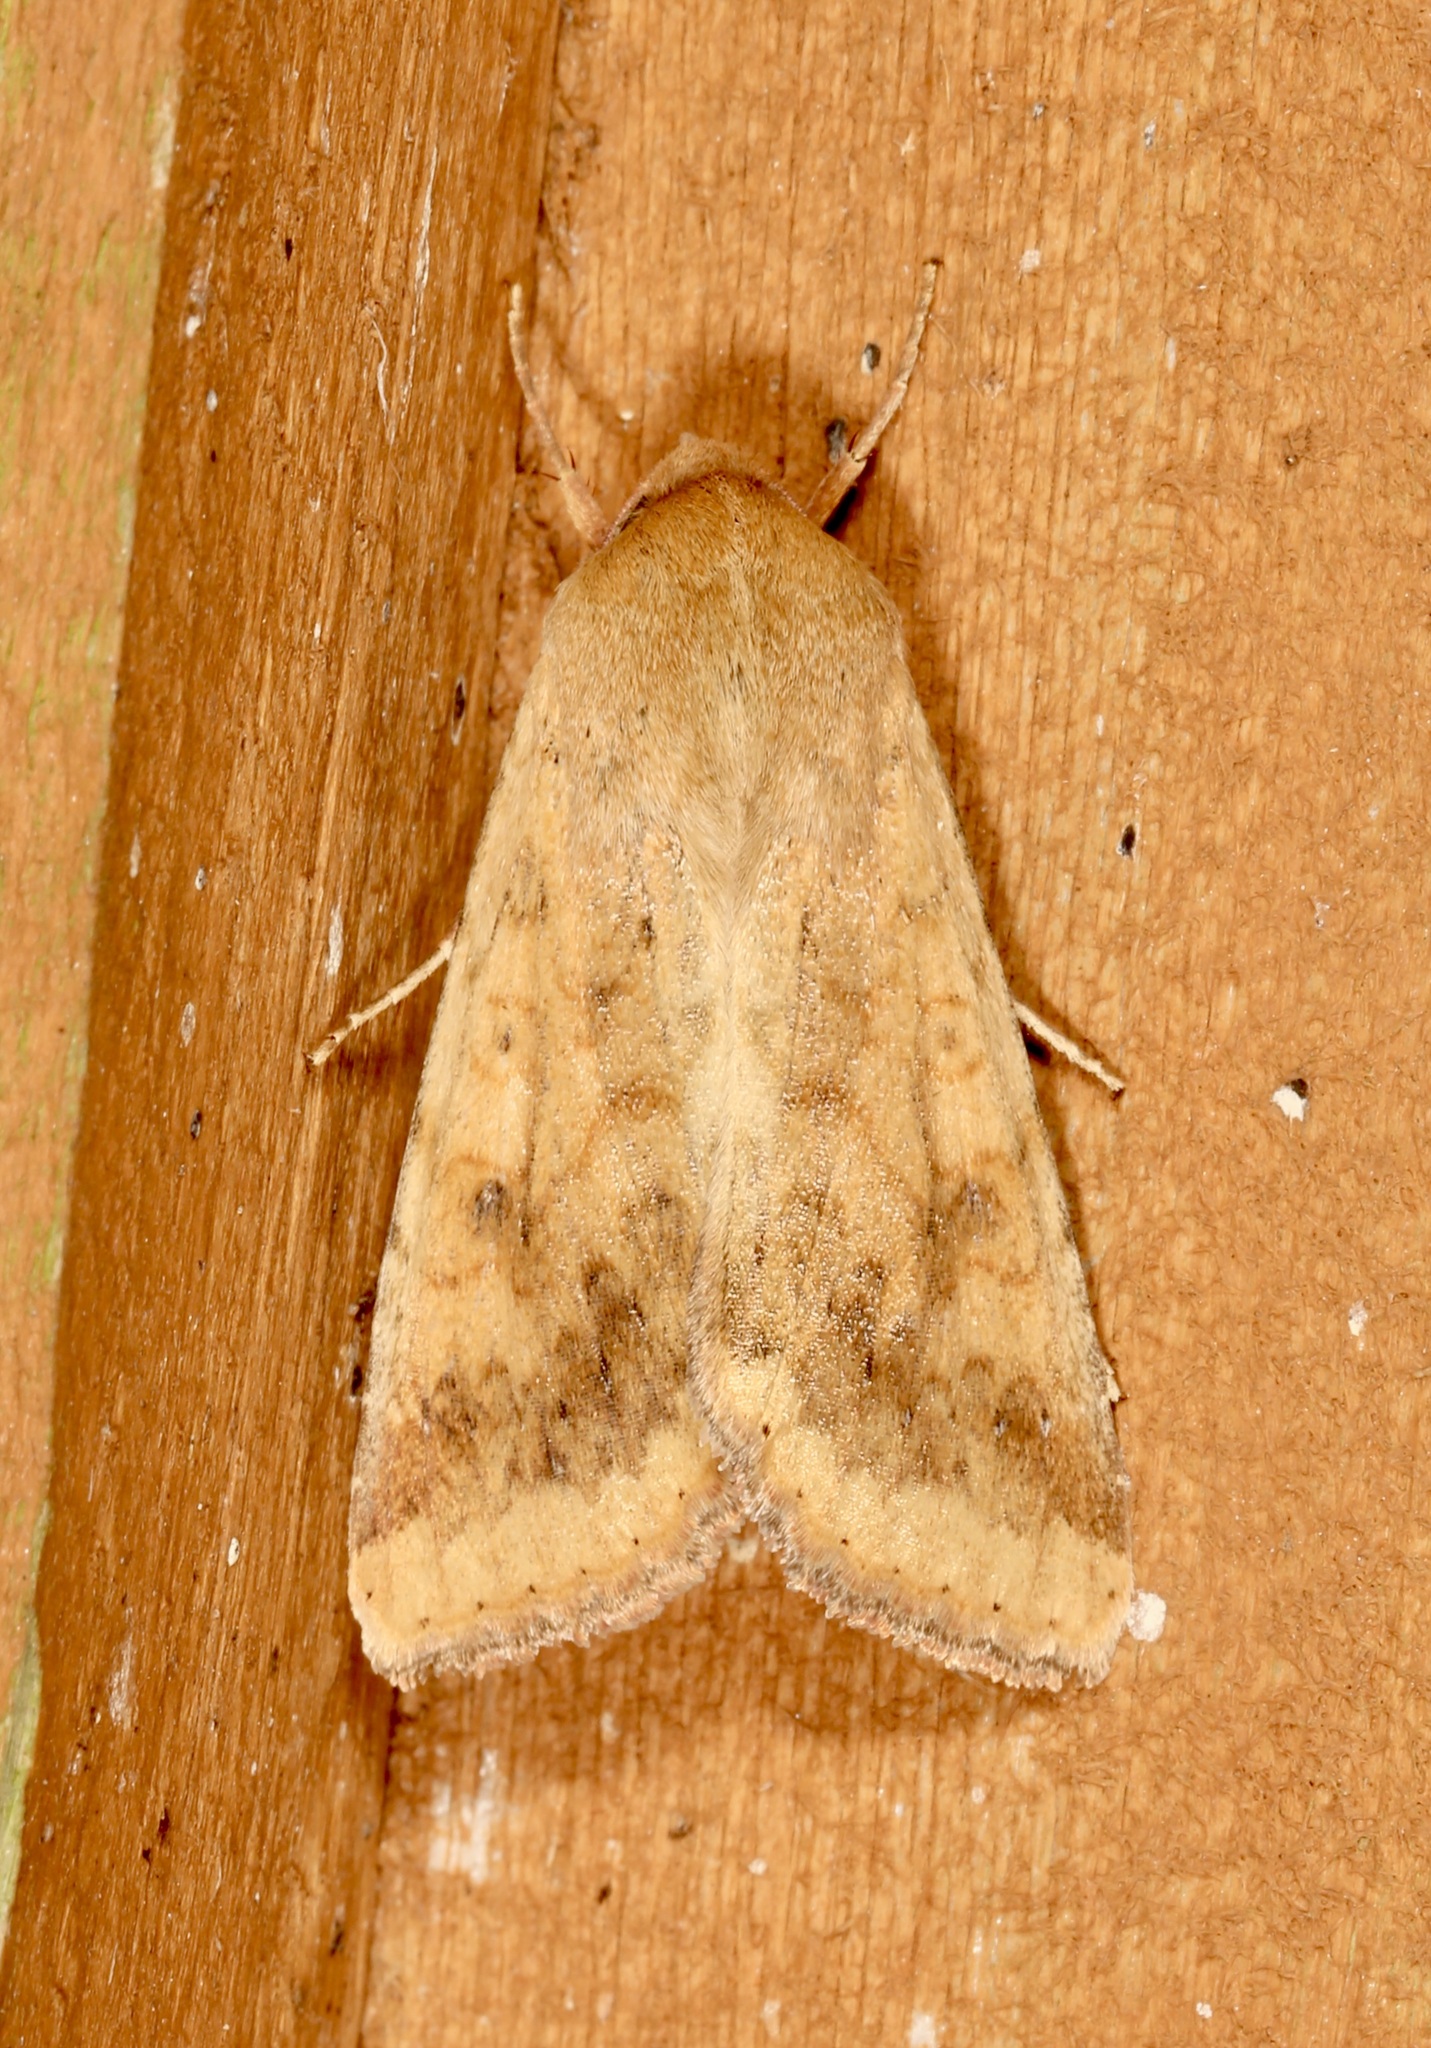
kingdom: Animalia
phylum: Arthropoda
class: Insecta
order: Lepidoptera
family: Noctuidae
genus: Helicoverpa
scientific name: Helicoverpa zea
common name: Bollworm
